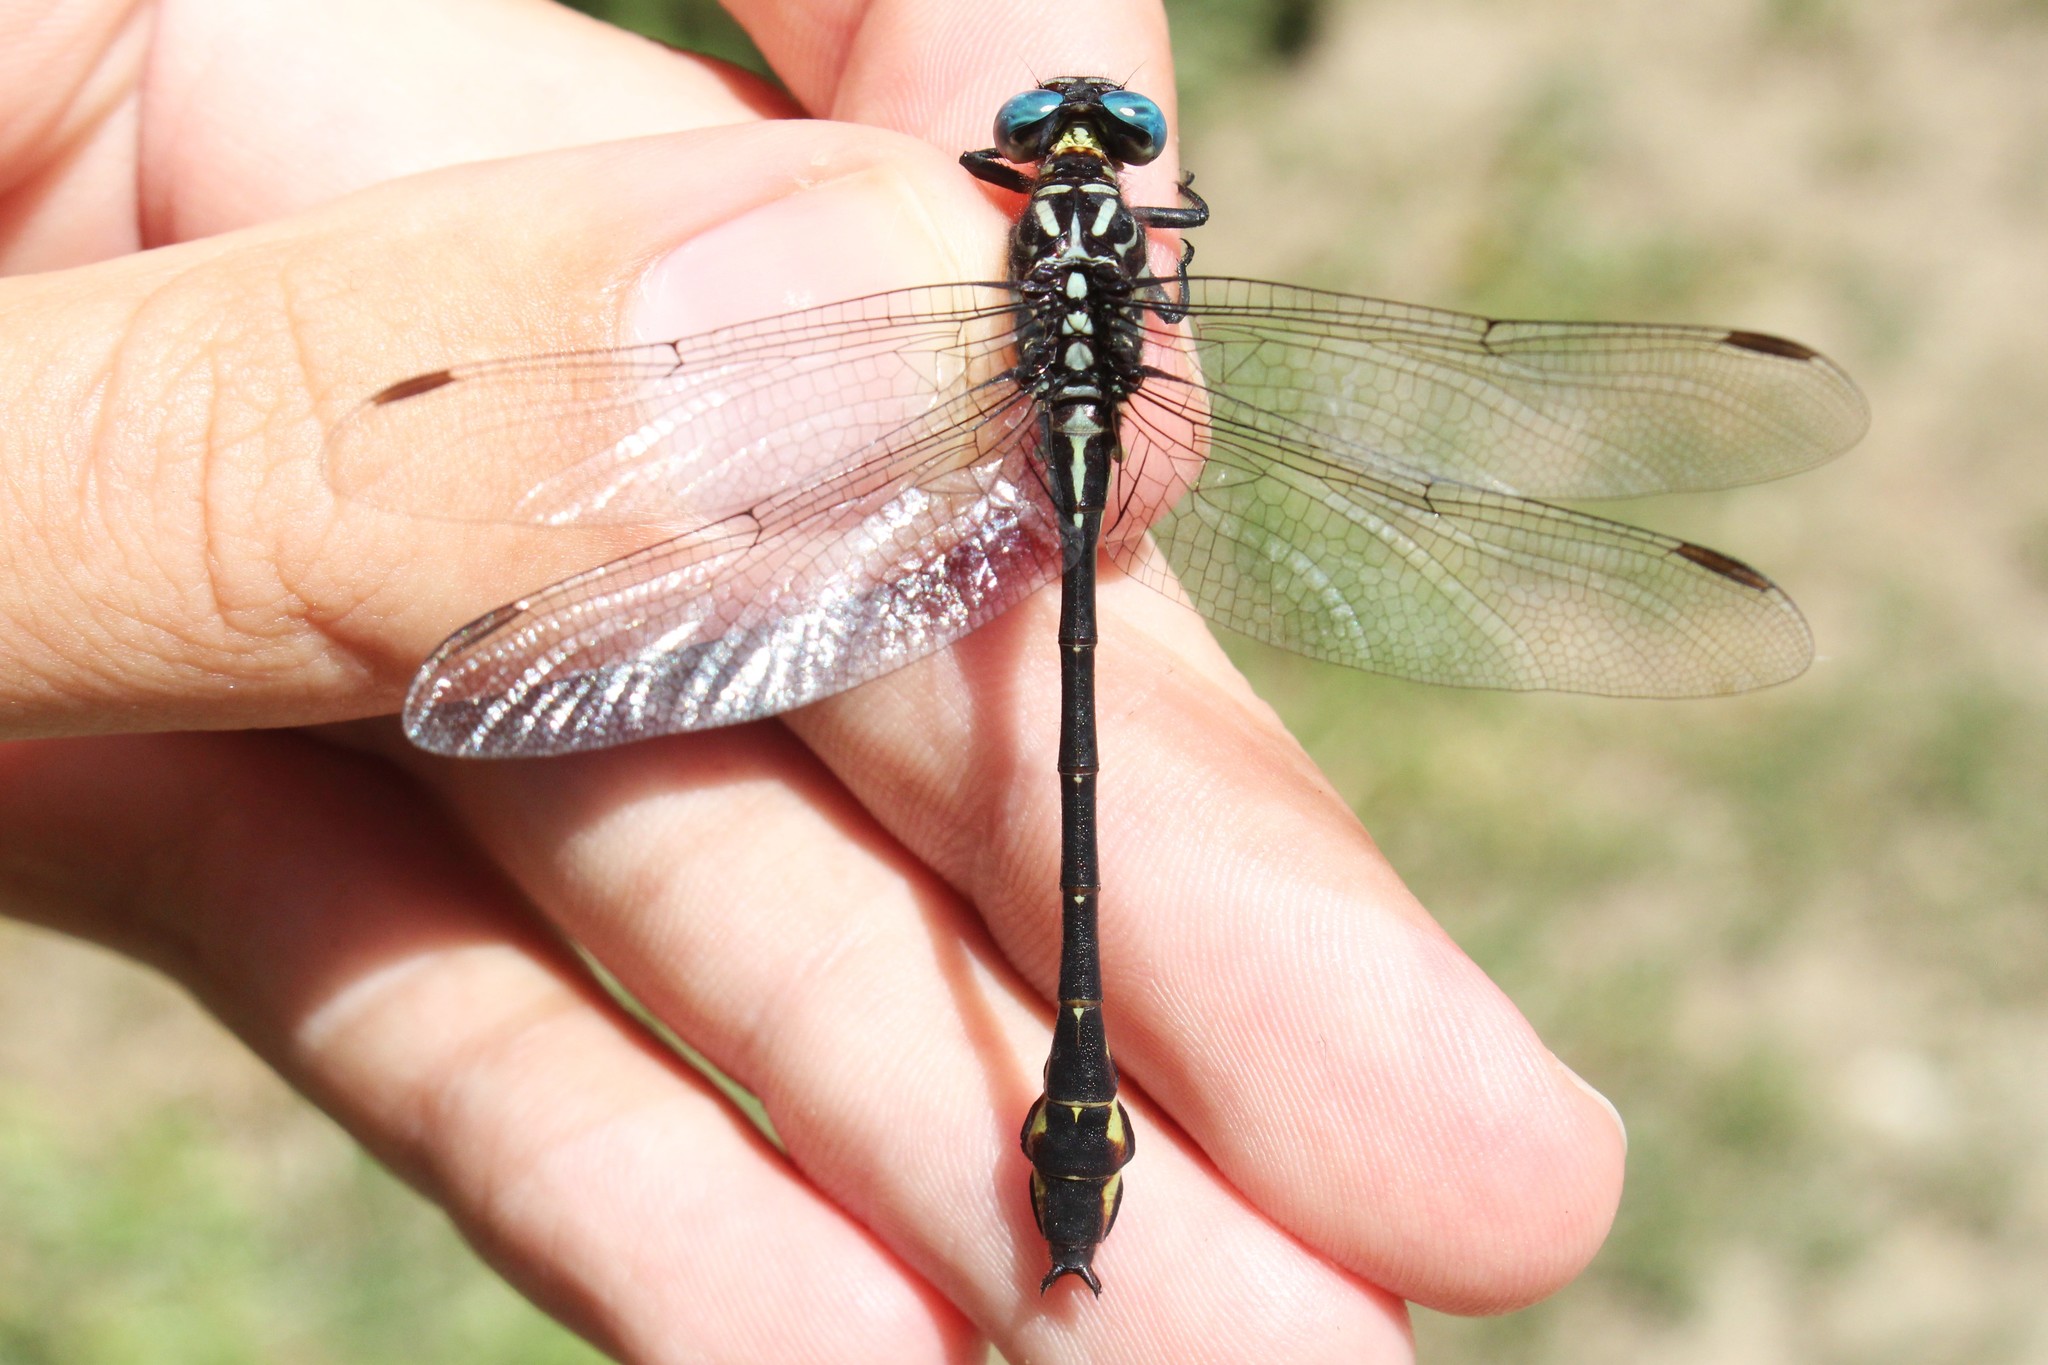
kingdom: Animalia
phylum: Arthropoda
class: Insecta
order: Odonata
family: Gomphidae
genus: Stylurus
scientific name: Stylurus notatus
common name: Elusive clubtail
